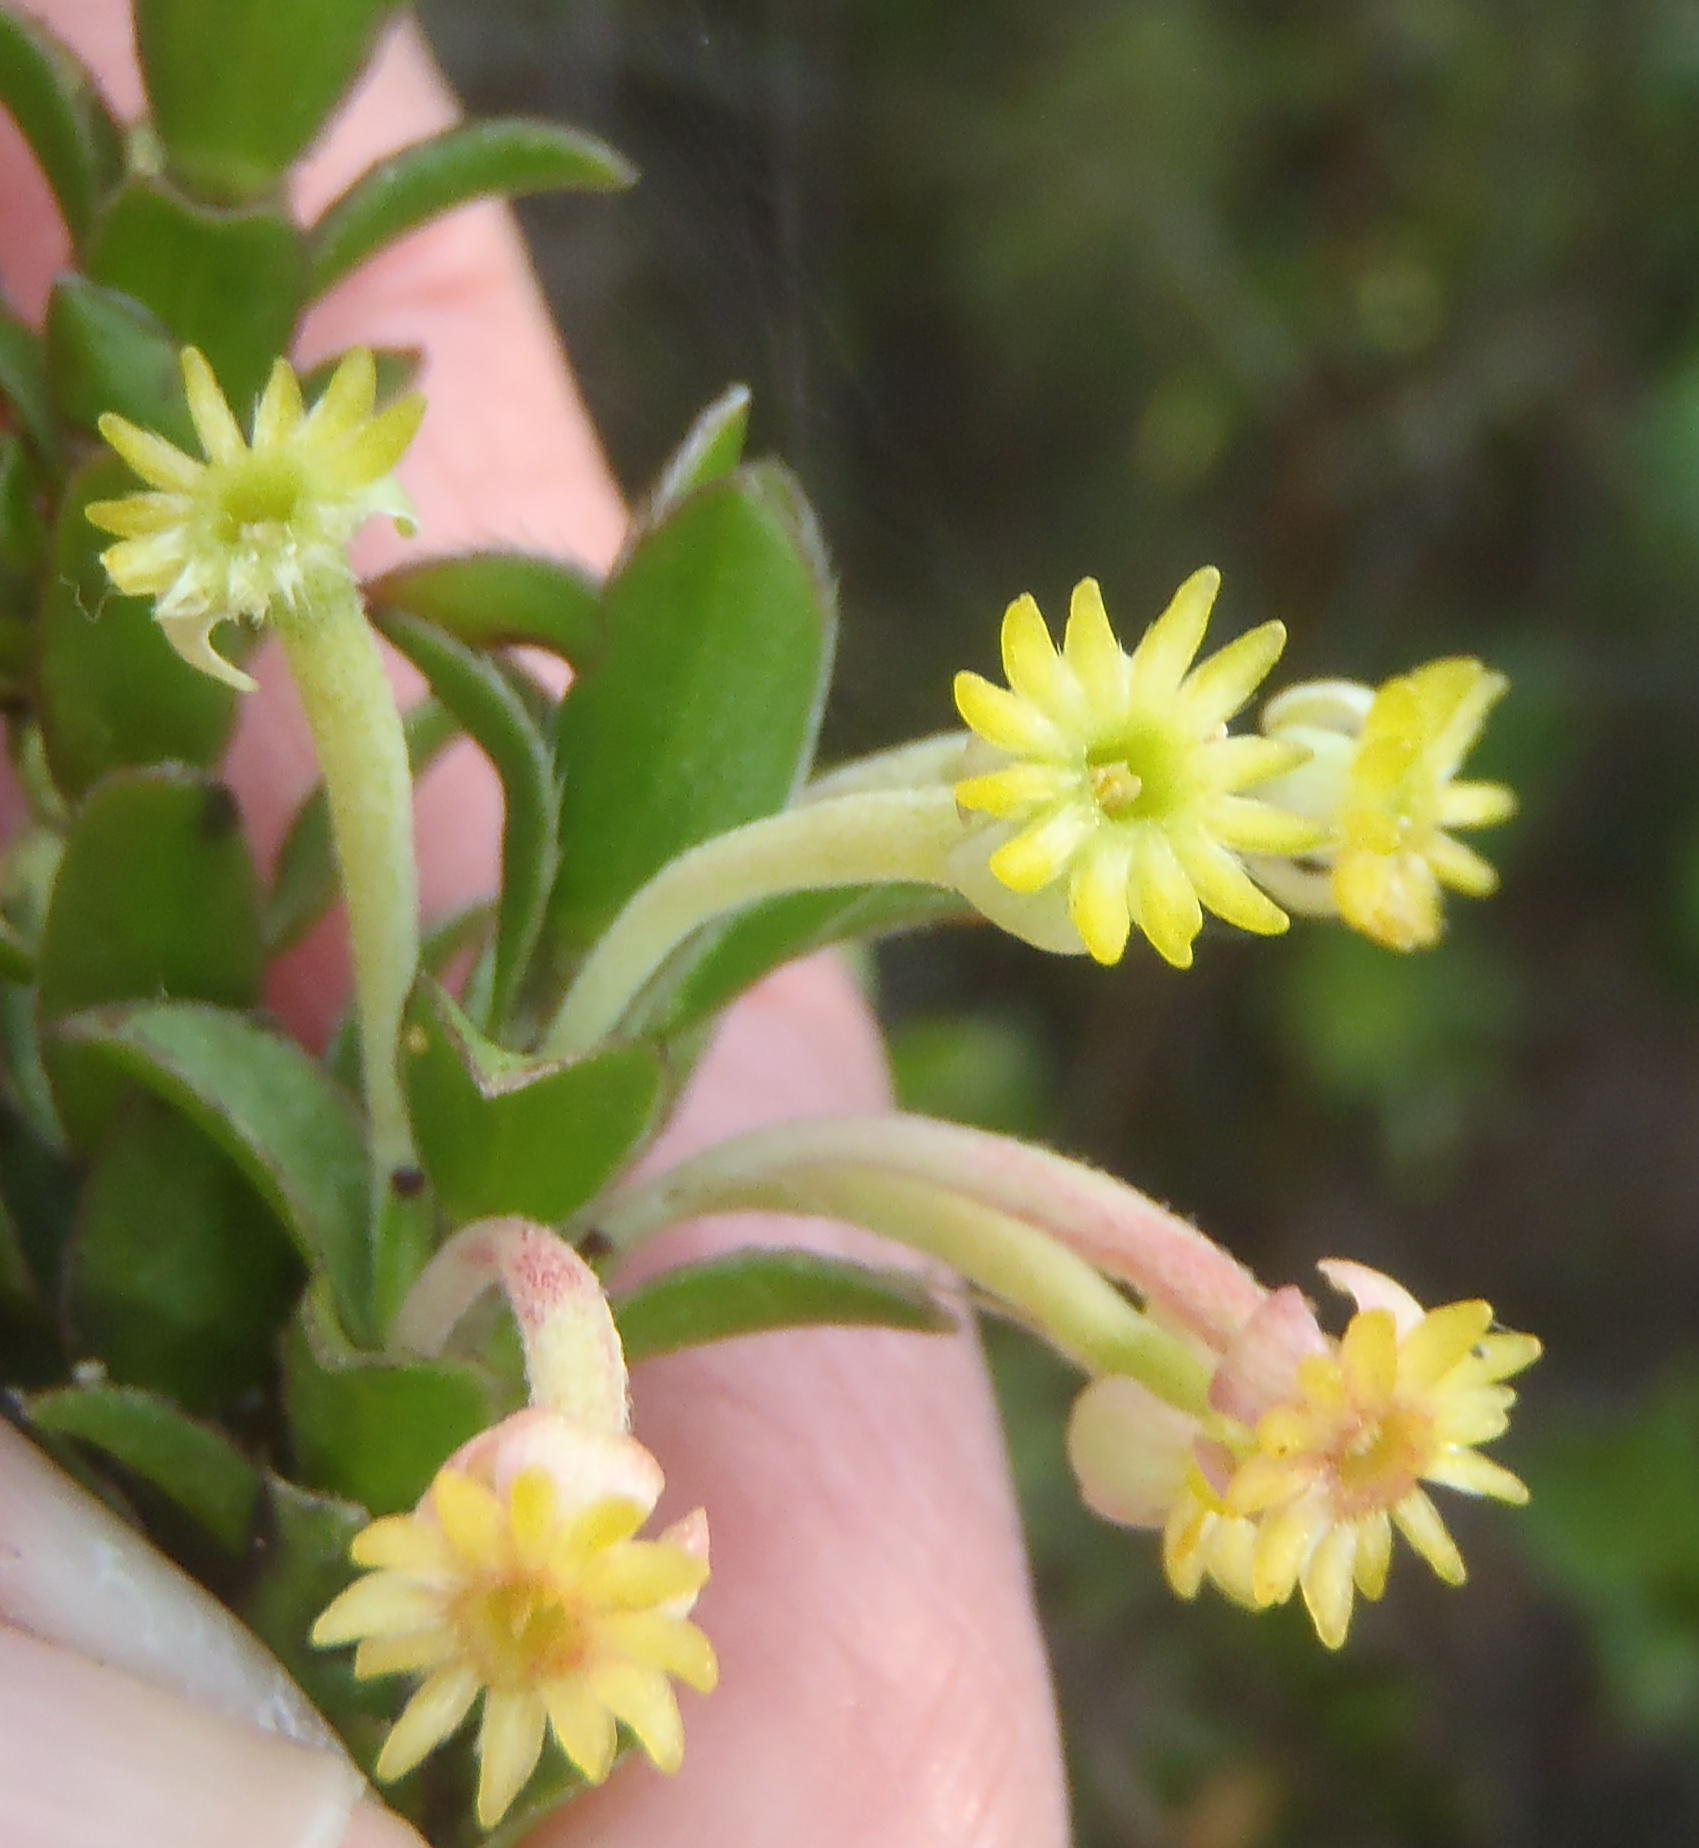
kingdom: Plantae
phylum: Tracheophyta
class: Magnoliopsida
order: Malvales
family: Thymelaeaceae
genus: Struthiola
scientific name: Struthiola argentea
